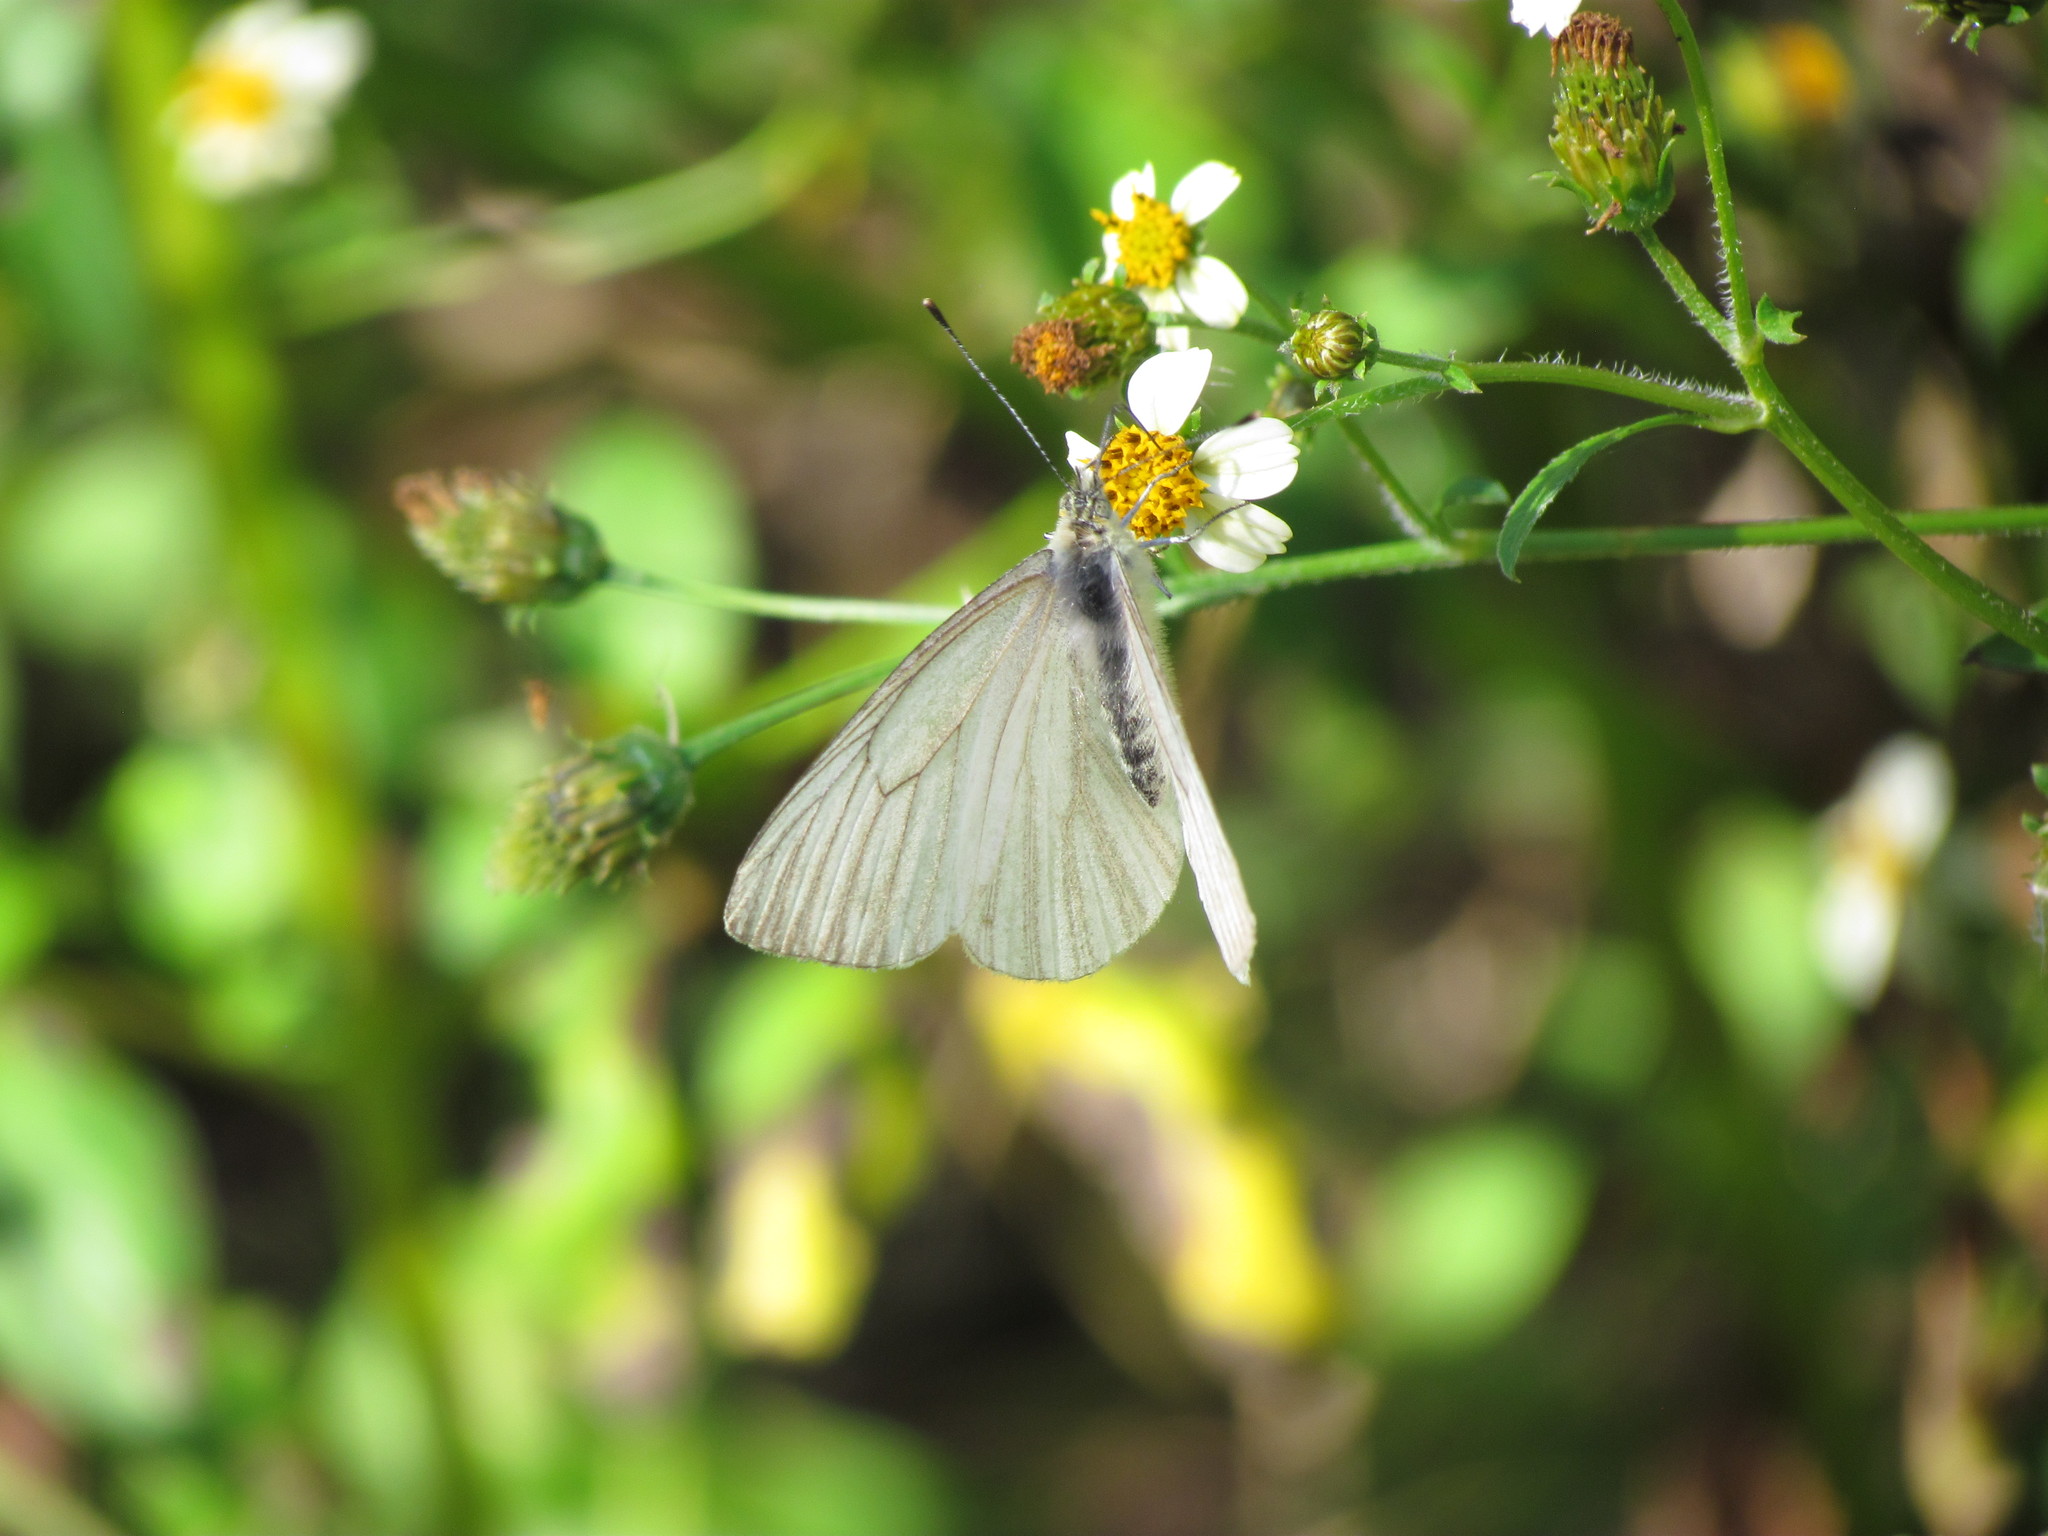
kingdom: Animalia
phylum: Arthropoda
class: Insecta
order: Lepidoptera
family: Pieridae
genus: Theochila
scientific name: Theochila maenacte
